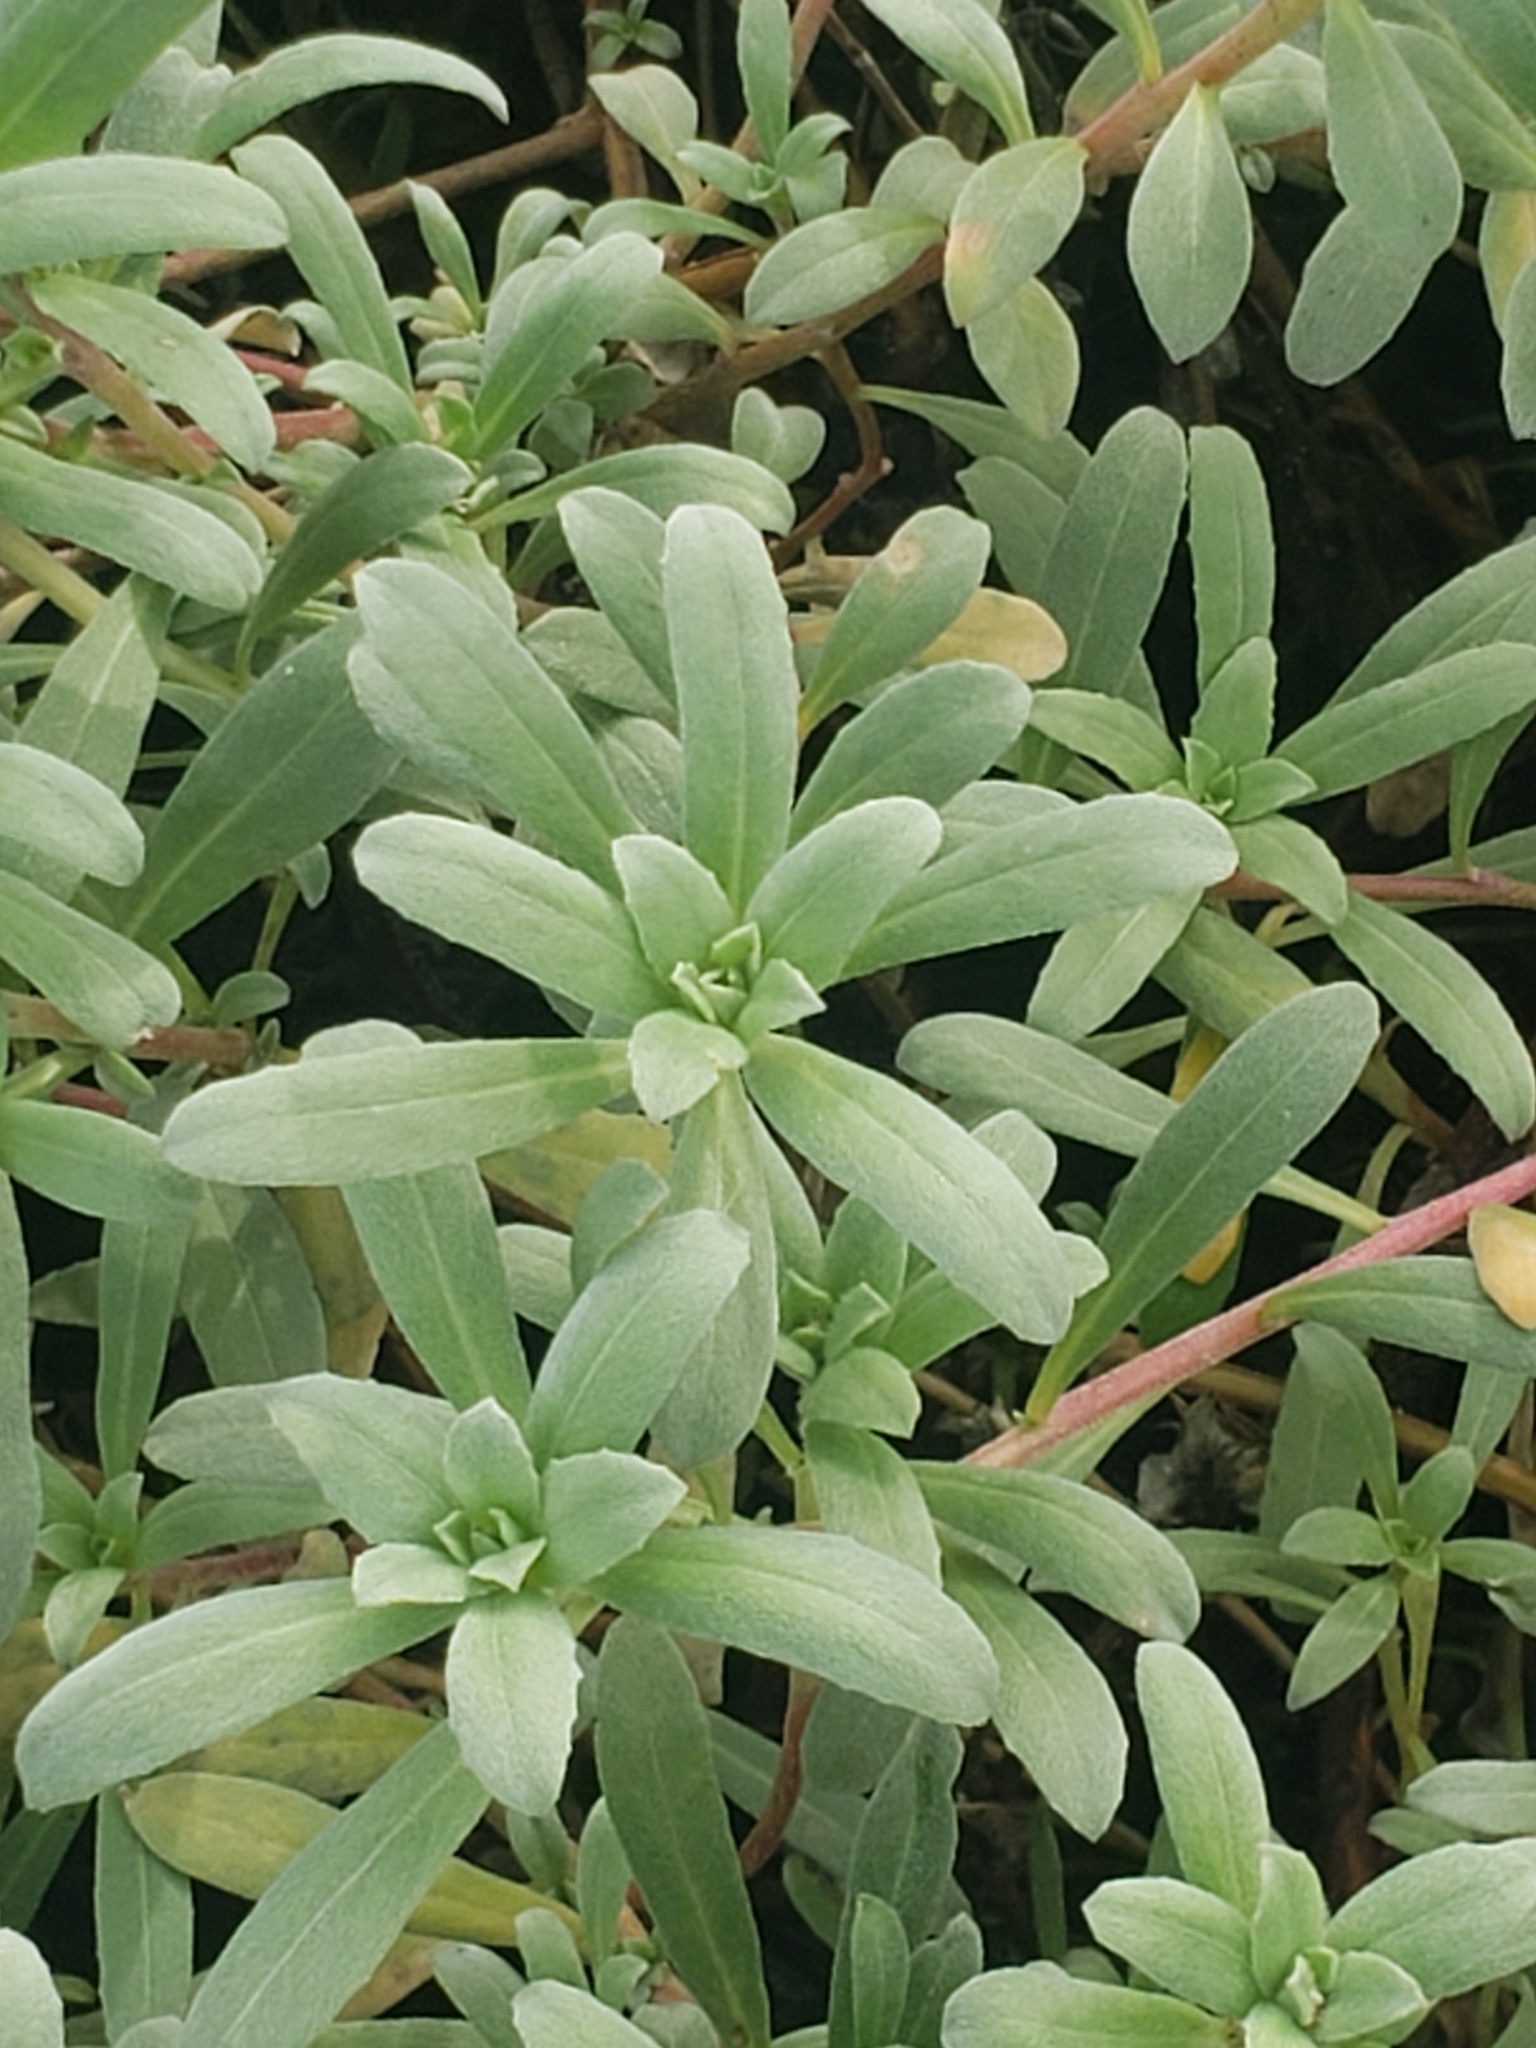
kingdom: Plantae
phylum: Tracheophyta
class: Magnoliopsida
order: Myrtales
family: Onagraceae
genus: Camissoniopsis
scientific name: Camissoniopsis cheiranthifolia
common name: Beach suncup
